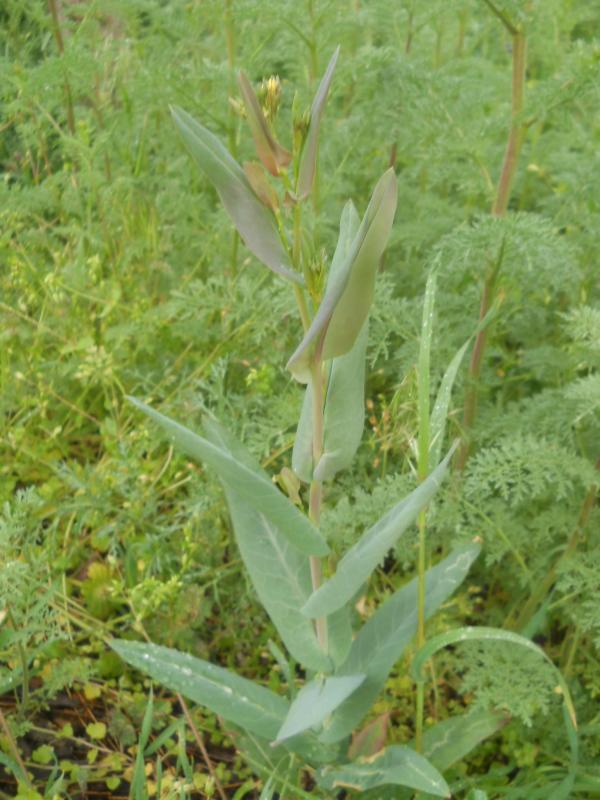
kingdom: Plantae
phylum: Tracheophyta
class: Magnoliopsida
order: Brassicales
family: Brassicaceae
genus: Turritis
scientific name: Turritis glabra
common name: Tower rockcress
